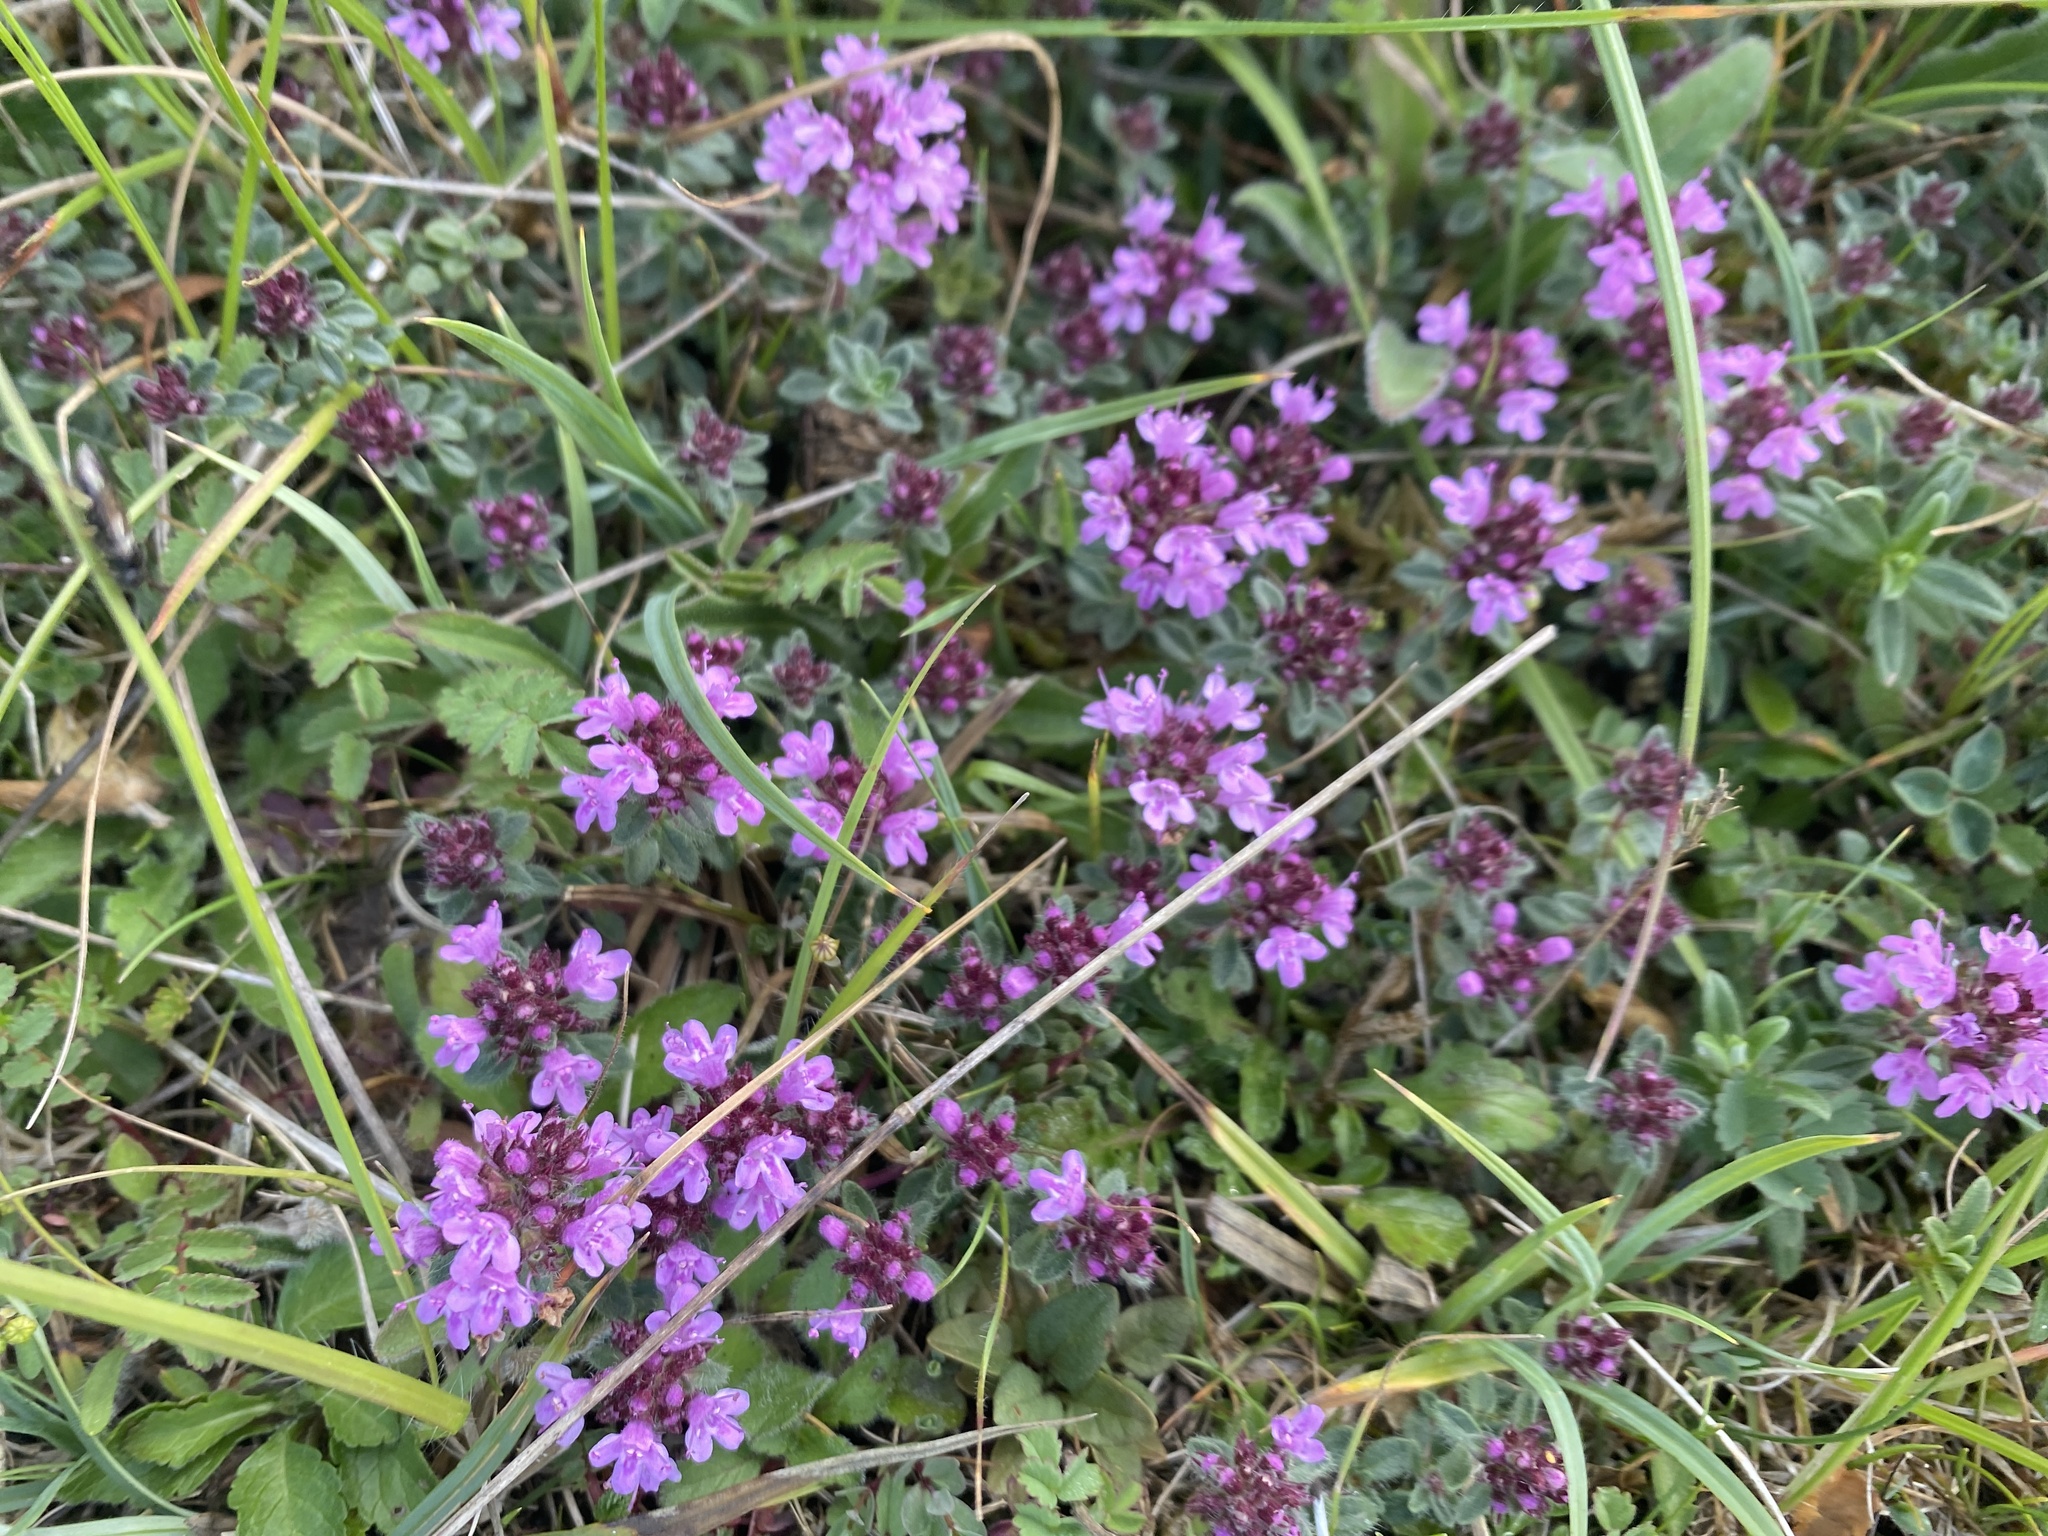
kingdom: Plantae
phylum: Tracheophyta
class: Magnoliopsida
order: Lamiales
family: Lamiaceae
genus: Thymus
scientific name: Thymus praecox
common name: Wild thyme
